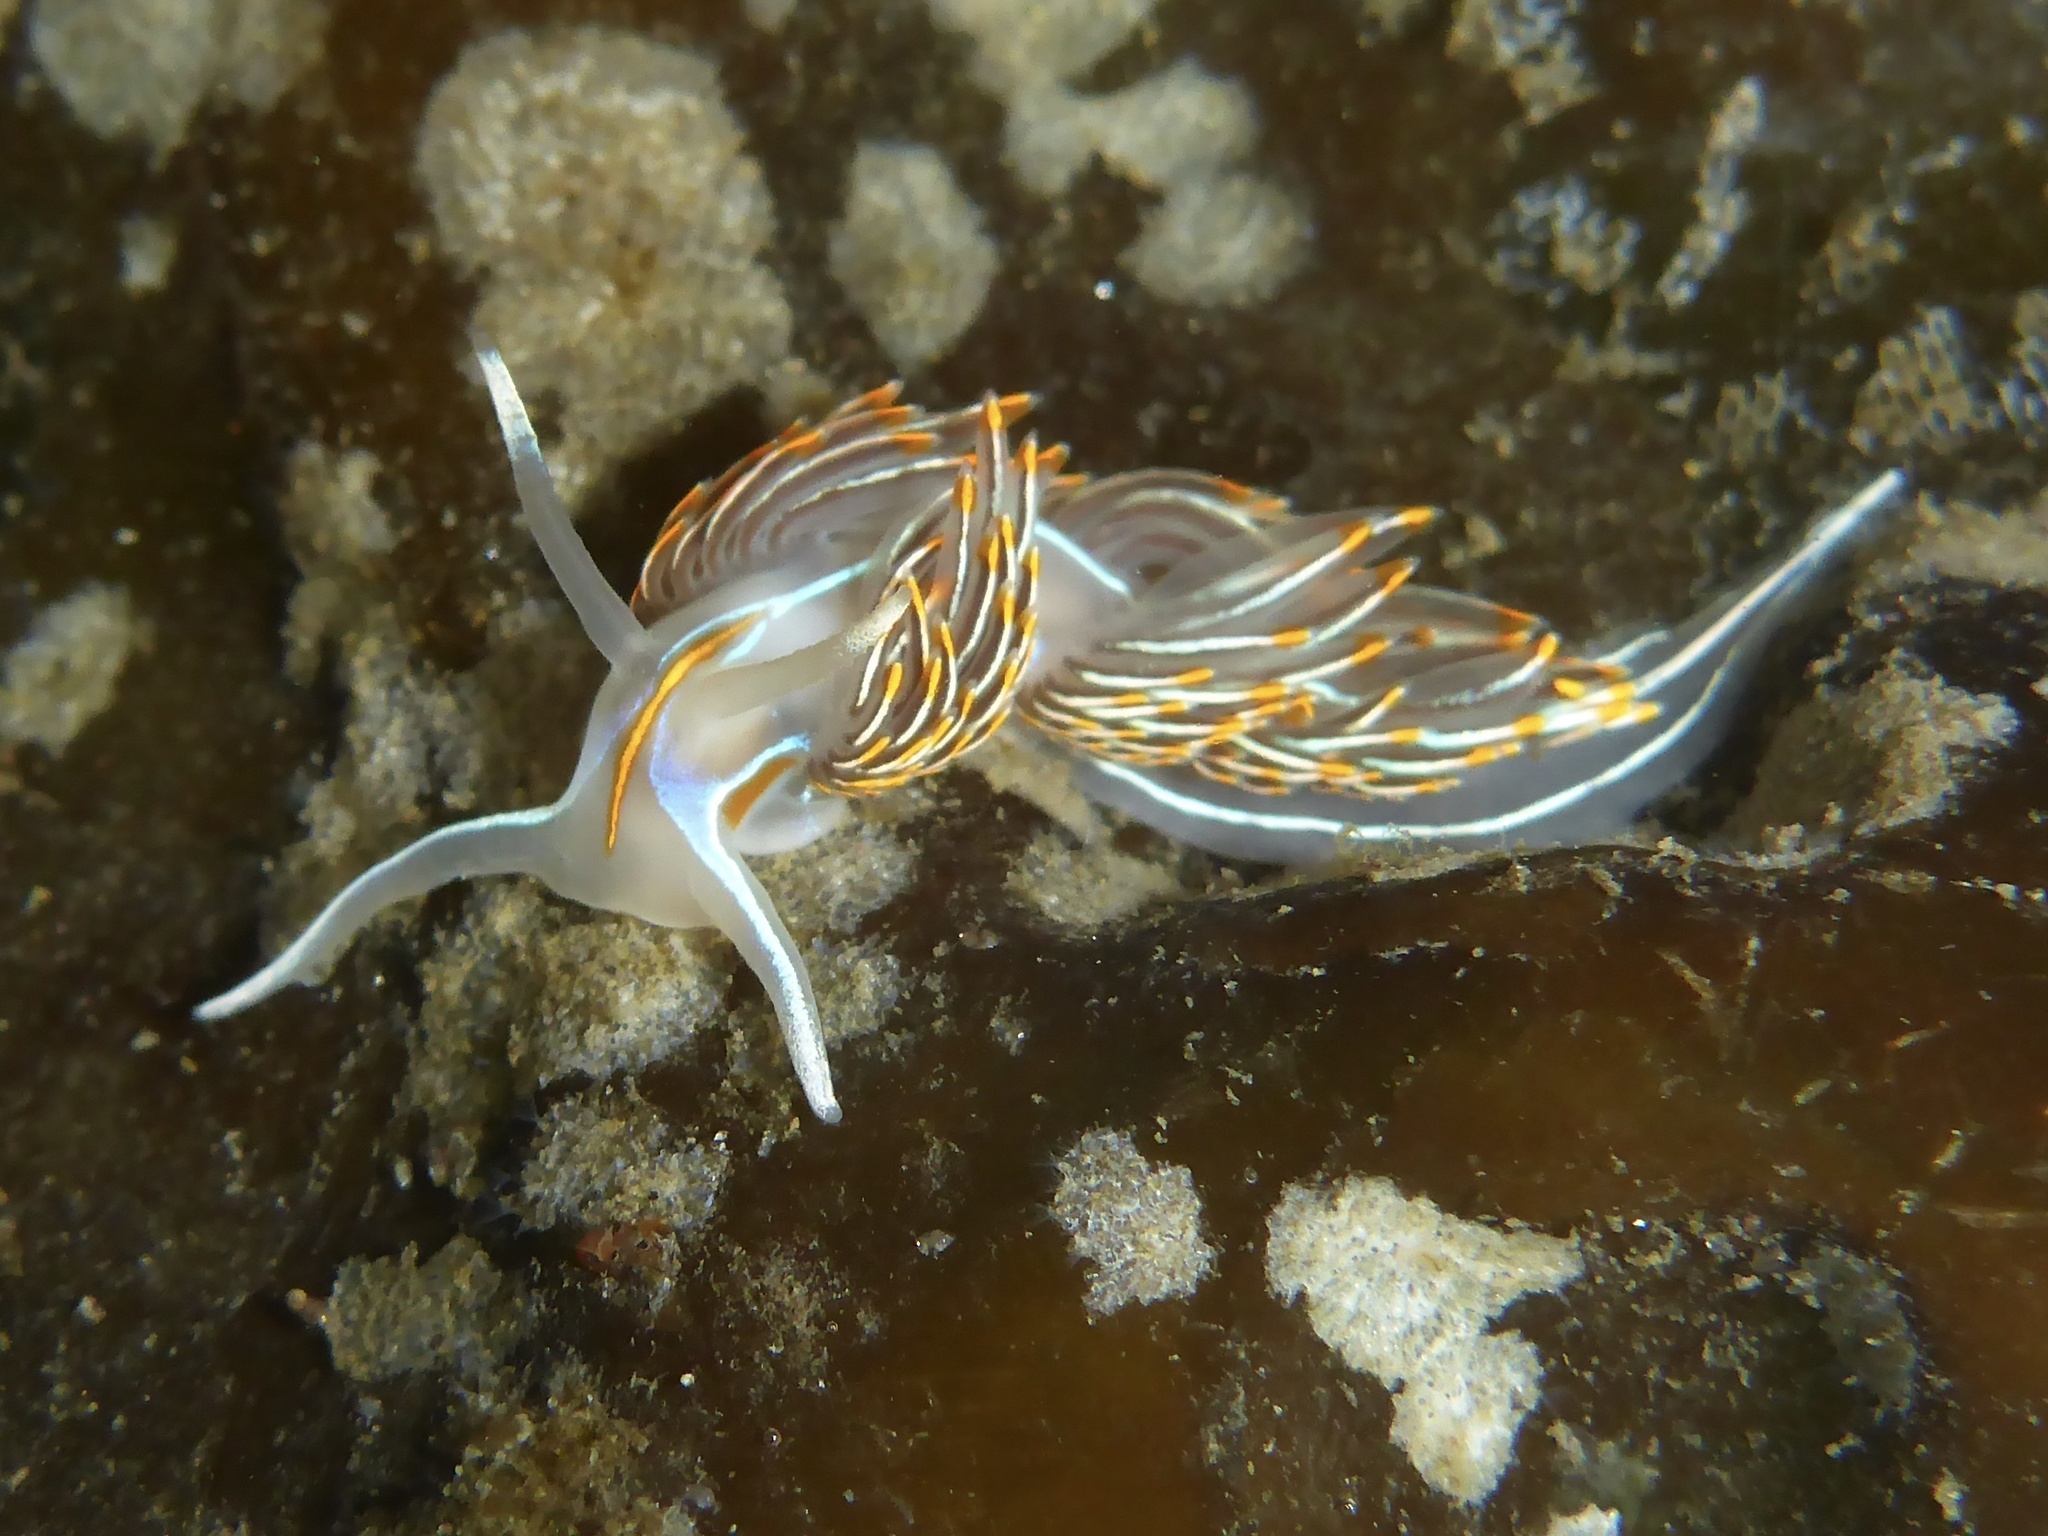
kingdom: Animalia
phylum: Mollusca
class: Gastropoda
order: Nudibranchia
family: Myrrhinidae
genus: Hermissenda
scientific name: Hermissenda crassicornis
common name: Hermissenda
